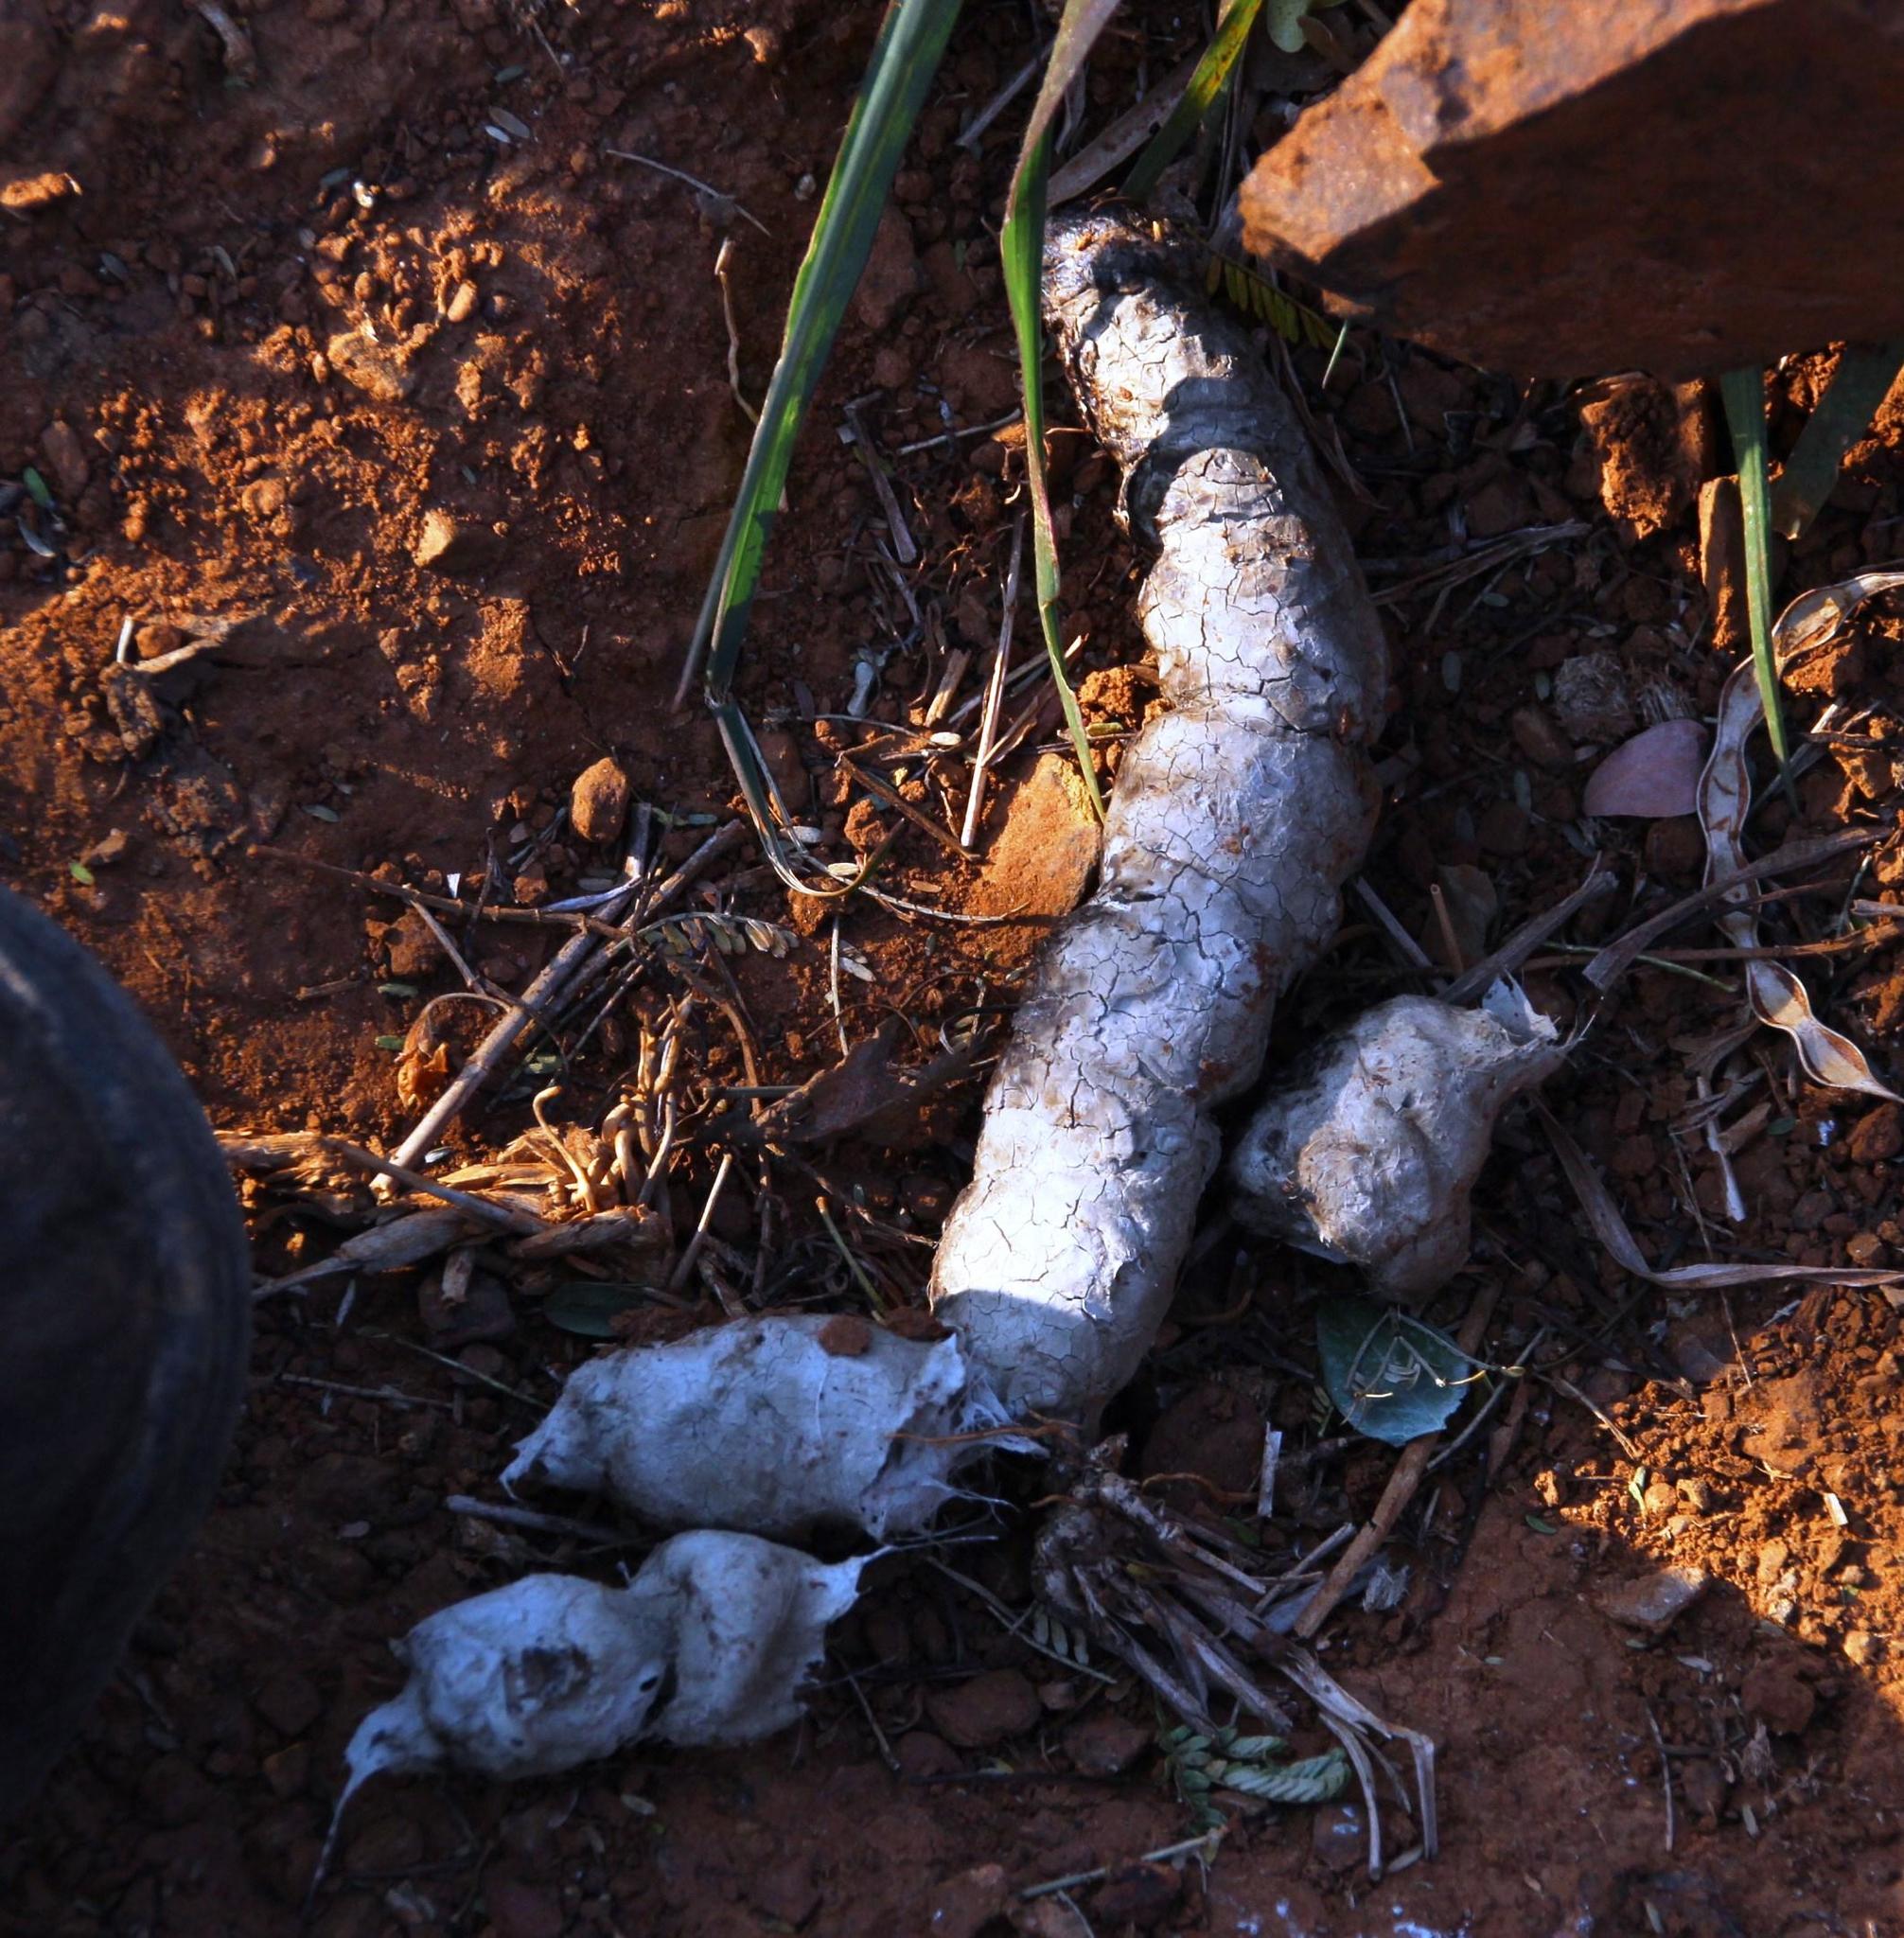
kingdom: Animalia
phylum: Chordata
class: Mammalia
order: Carnivora
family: Hyaenidae
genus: Hyaena
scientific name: Hyaena brunnea
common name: Brown hyena
